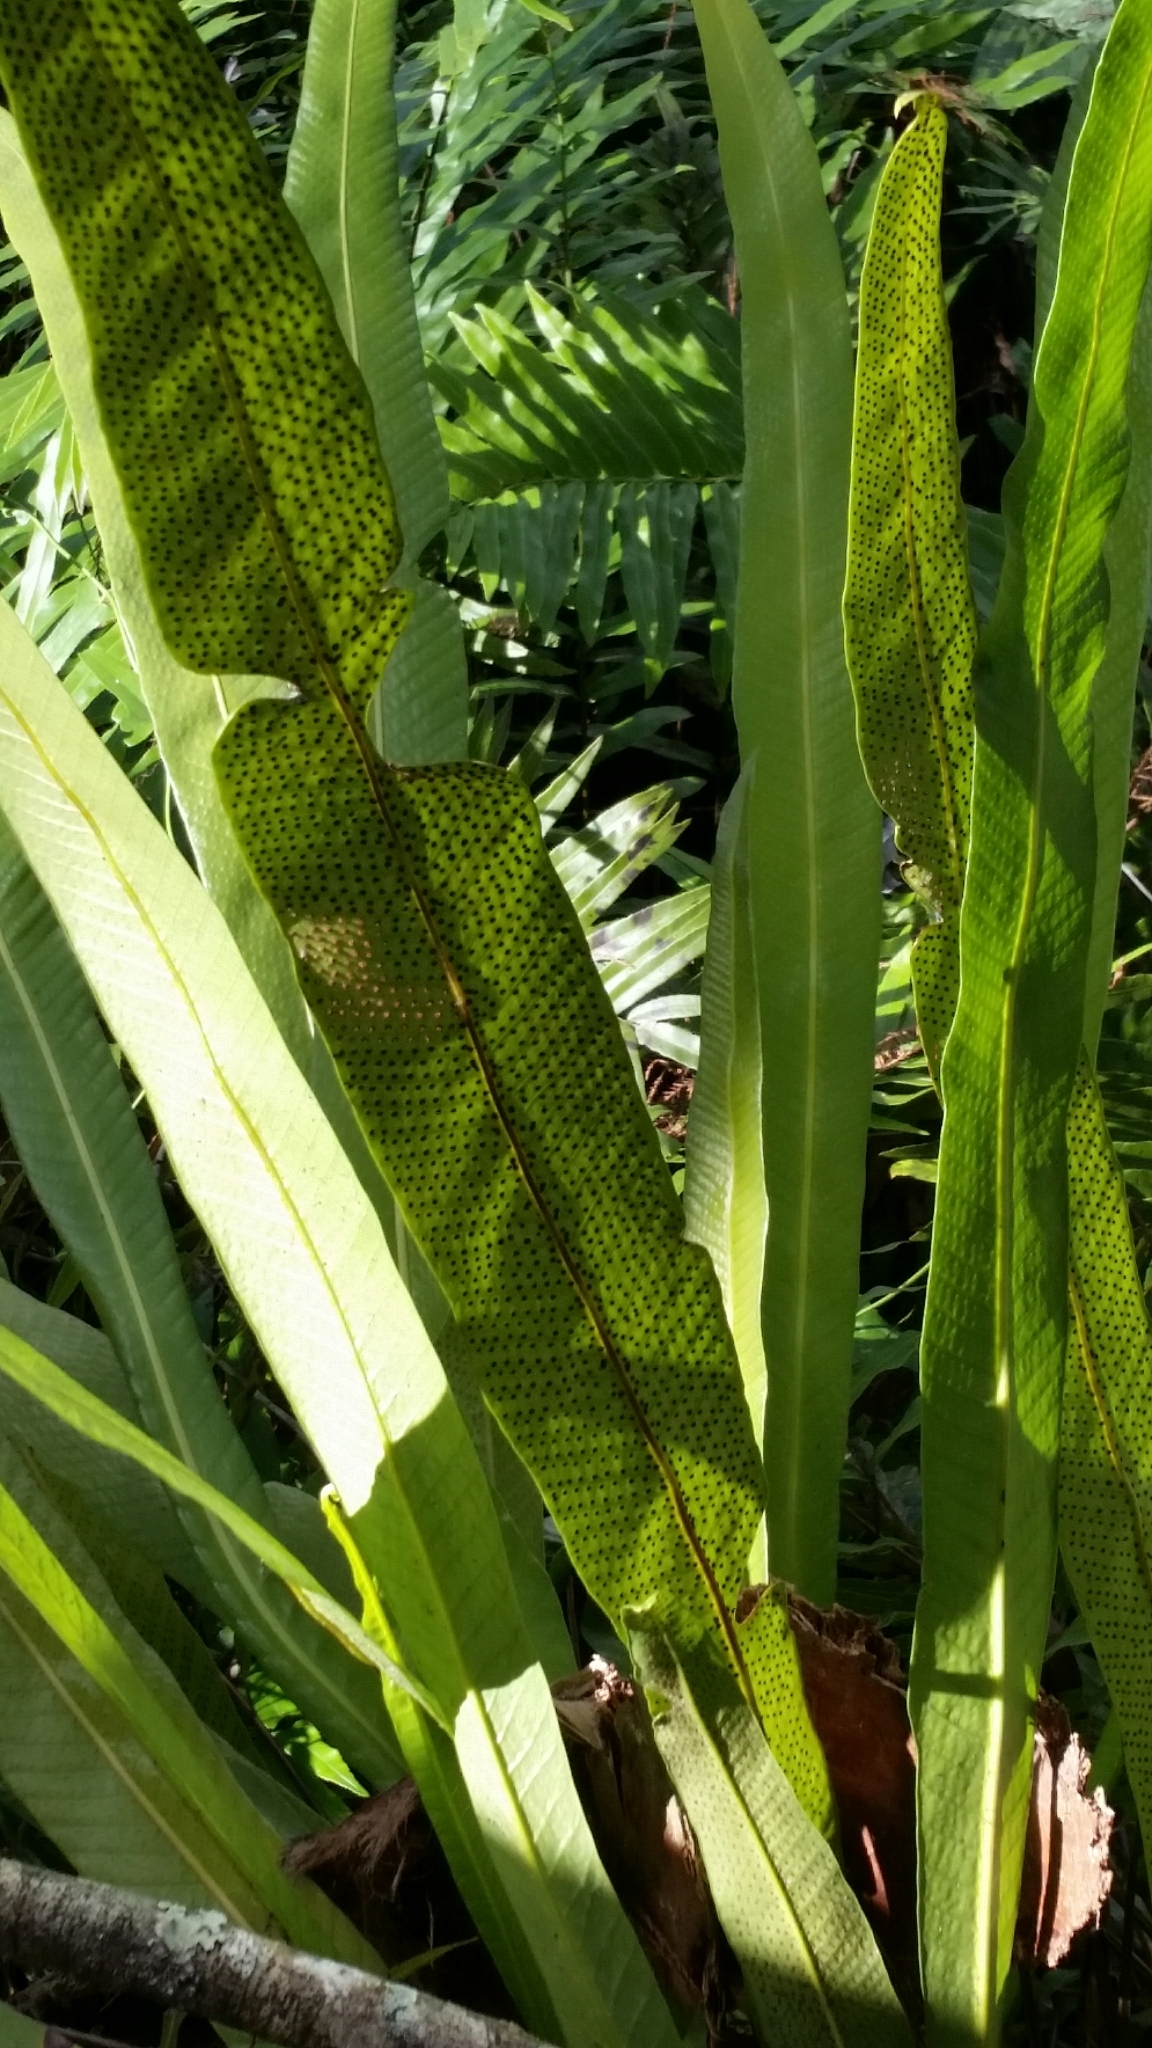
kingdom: Plantae
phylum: Tracheophyta
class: Polypodiopsida
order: Polypodiales
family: Polypodiaceae
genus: Campyloneurum
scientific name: Campyloneurum phyllitidis
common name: Cow-tongue fern
